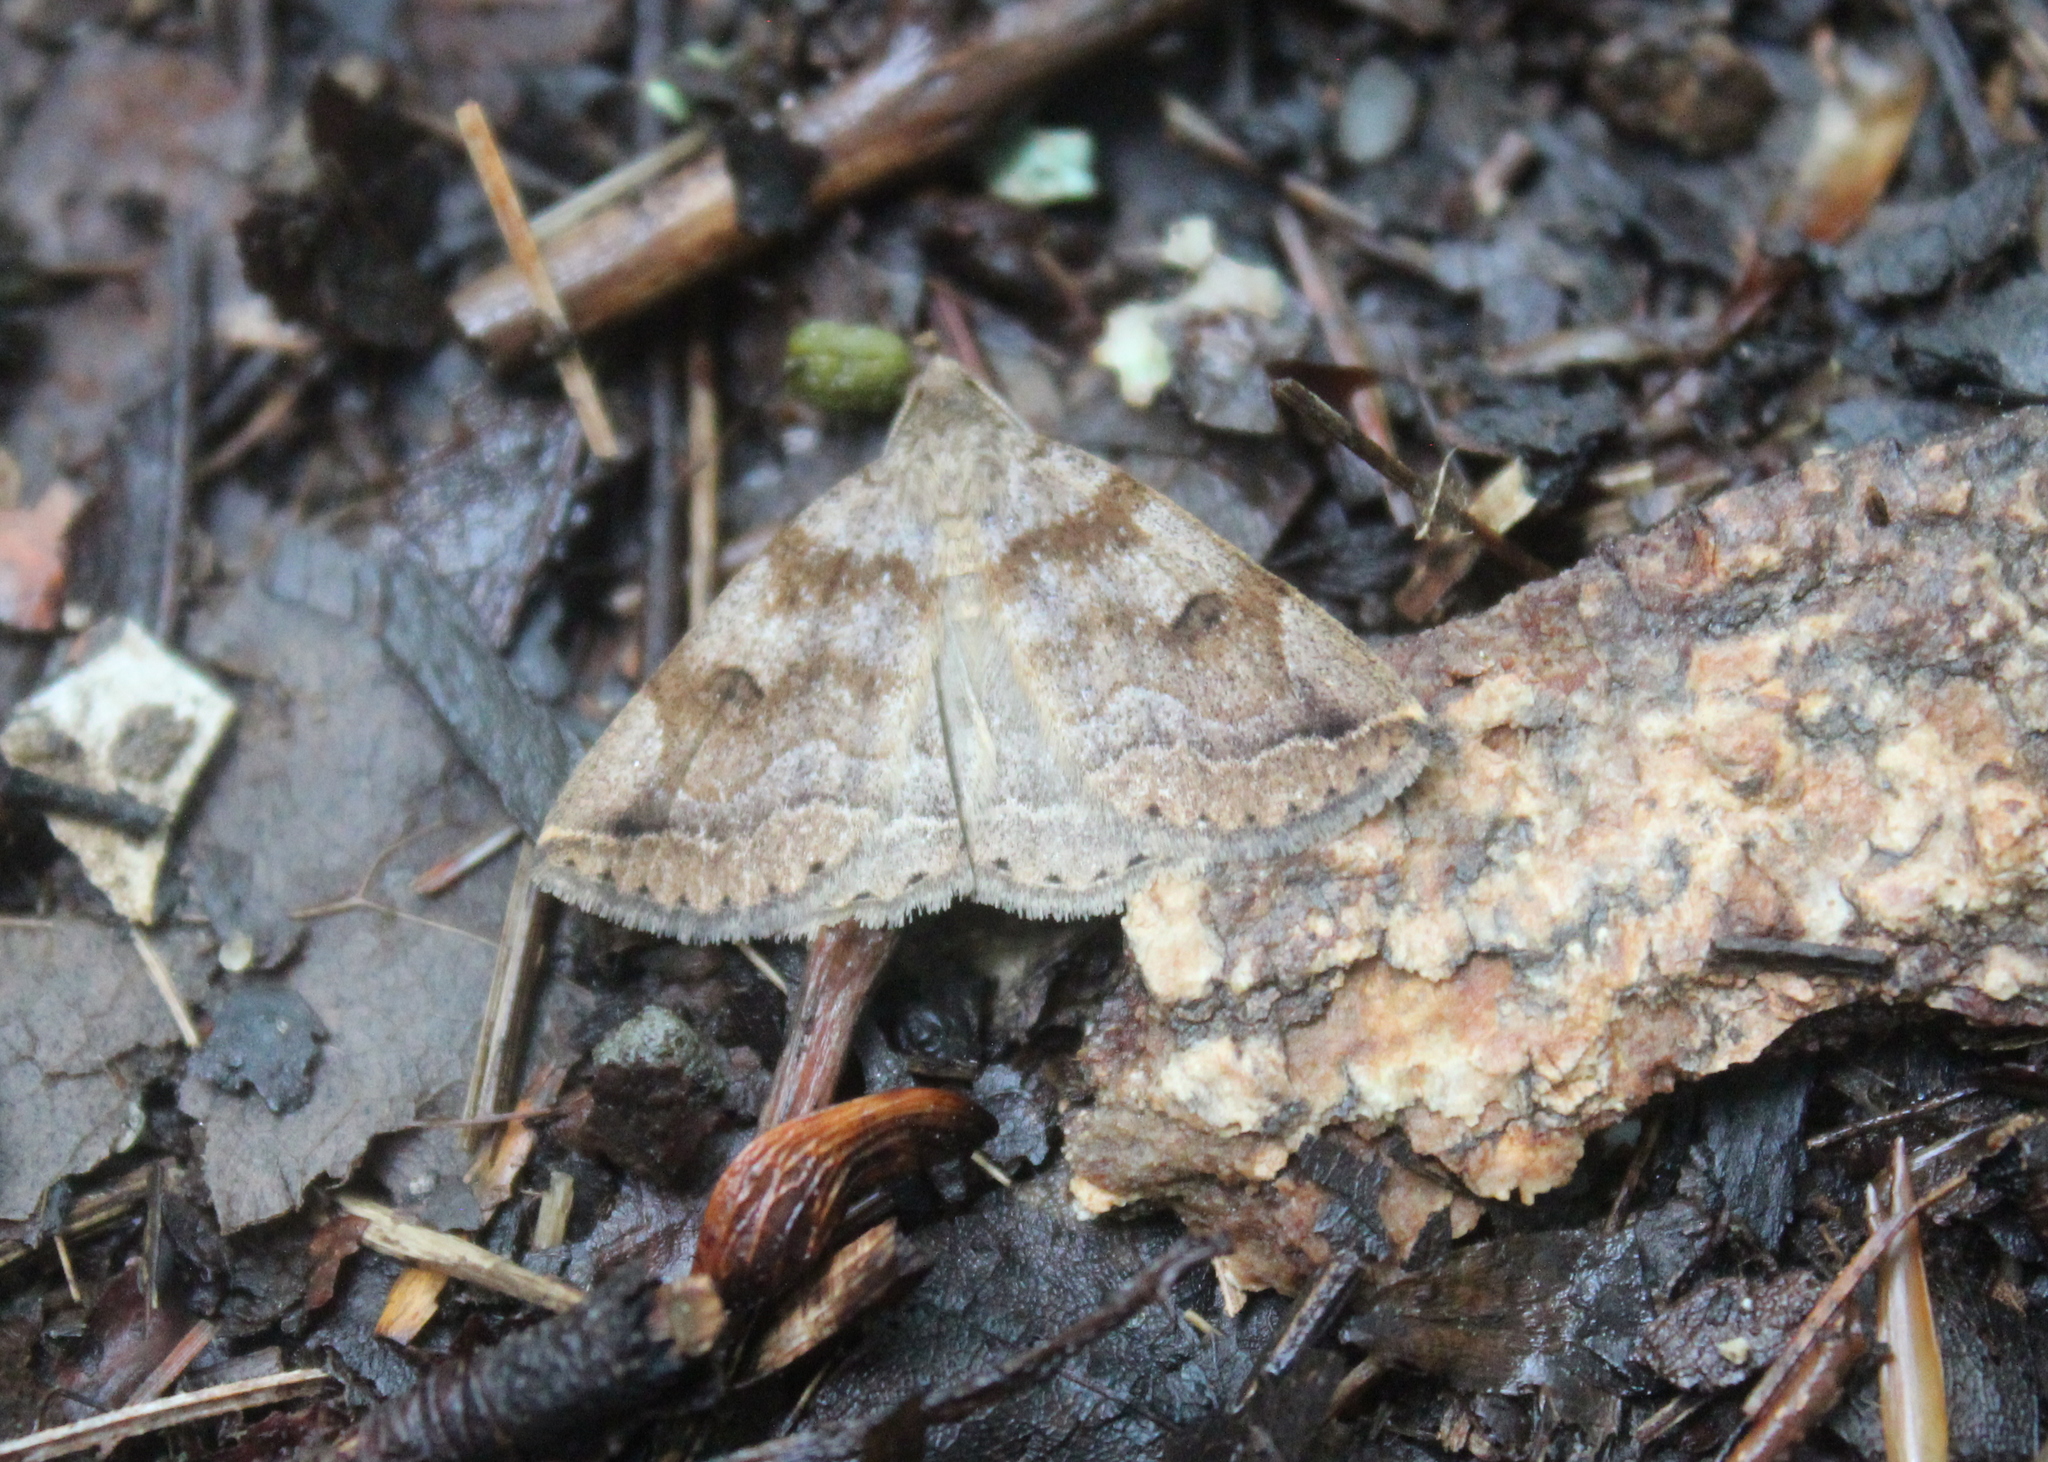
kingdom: Animalia
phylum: Arthropoda
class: Insecta
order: Lepidoptera
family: Erebidae
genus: Zanclognatha
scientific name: Zanclognatha laevigata
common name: Variable fan-foot
